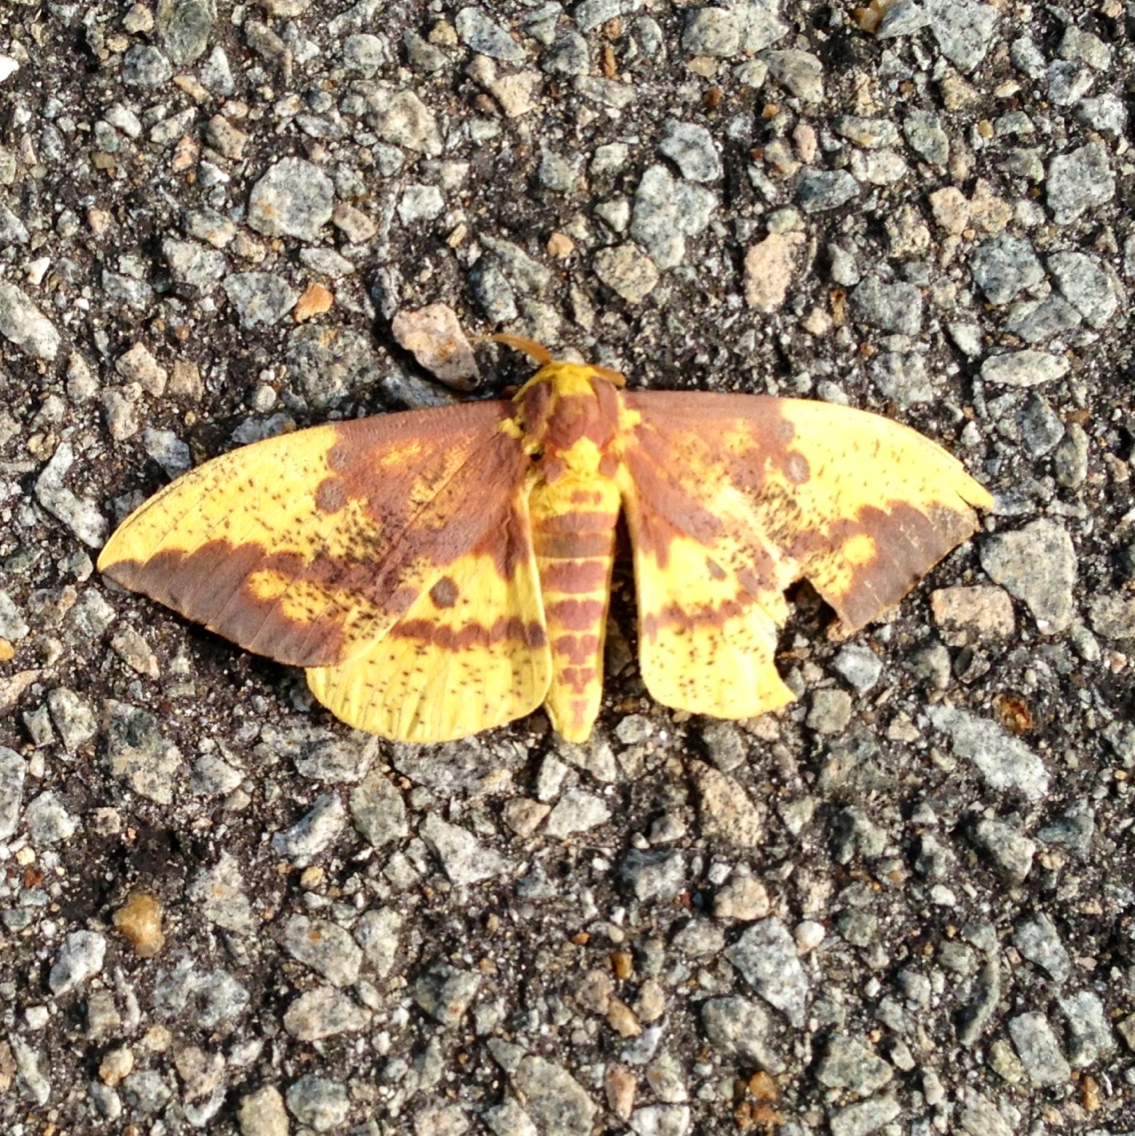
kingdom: Animalia
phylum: Arthropoda
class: Insecta
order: Lepidoptera
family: Saturniidae
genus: Eacles
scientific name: Eacles imperialis
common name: Imperial moth
